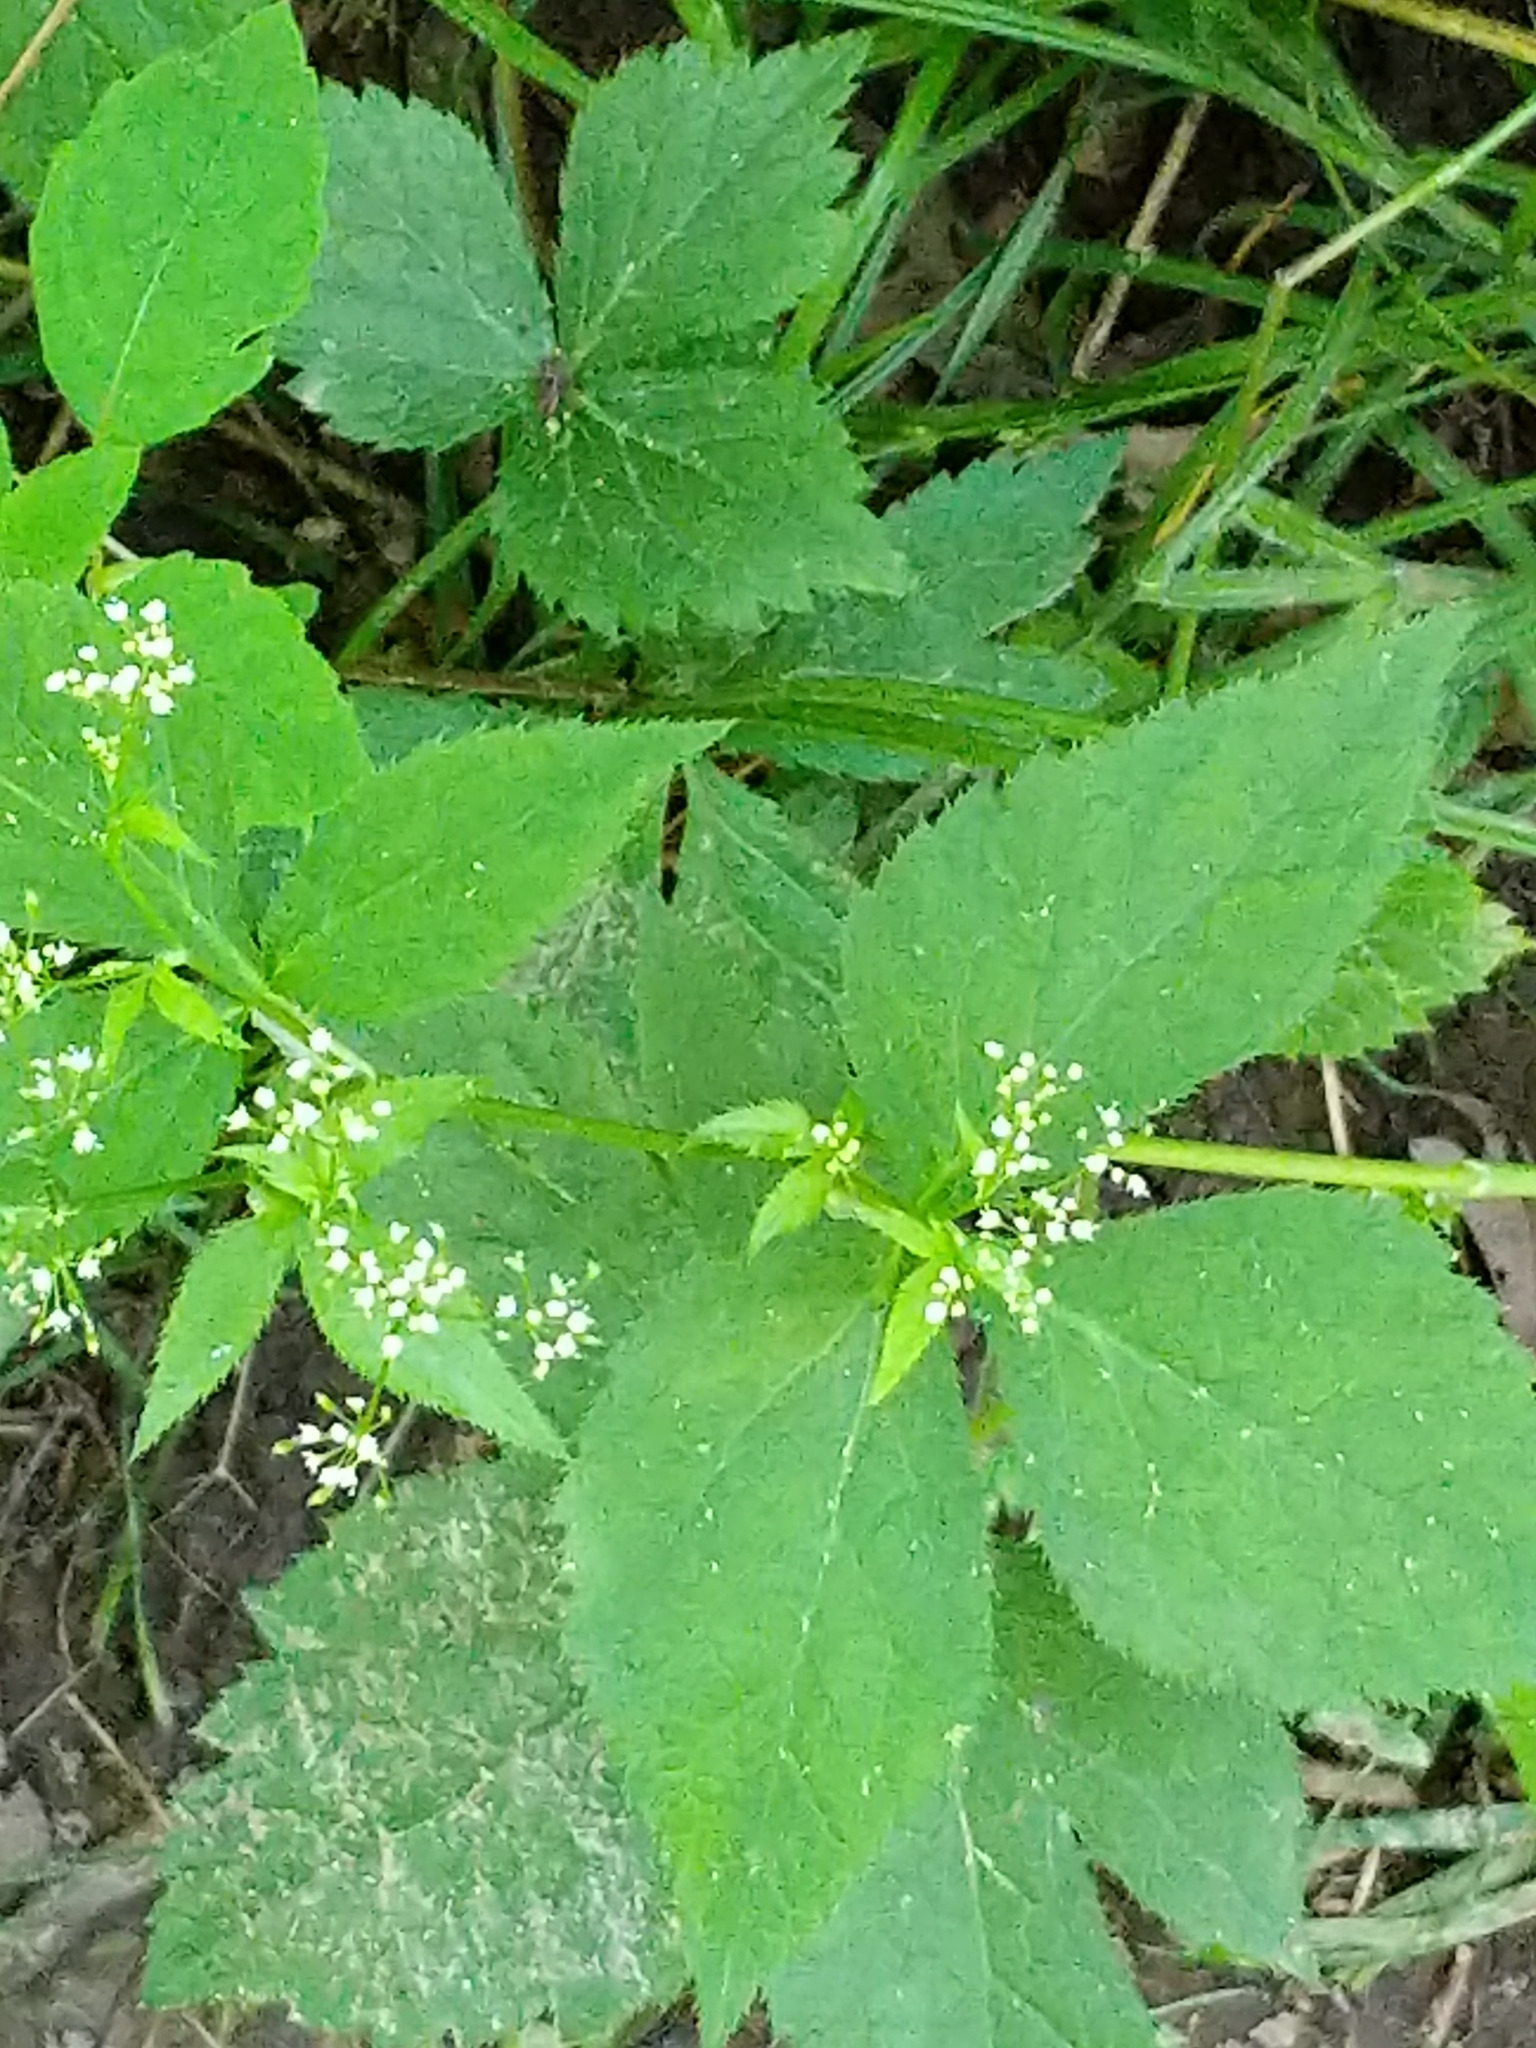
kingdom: Plantae
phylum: Tracheophyta
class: Magnoliopsida
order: Apiales
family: Apiaceae
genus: Cryptotaenia
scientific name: Cryptotaenia canadensis
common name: Honewort
